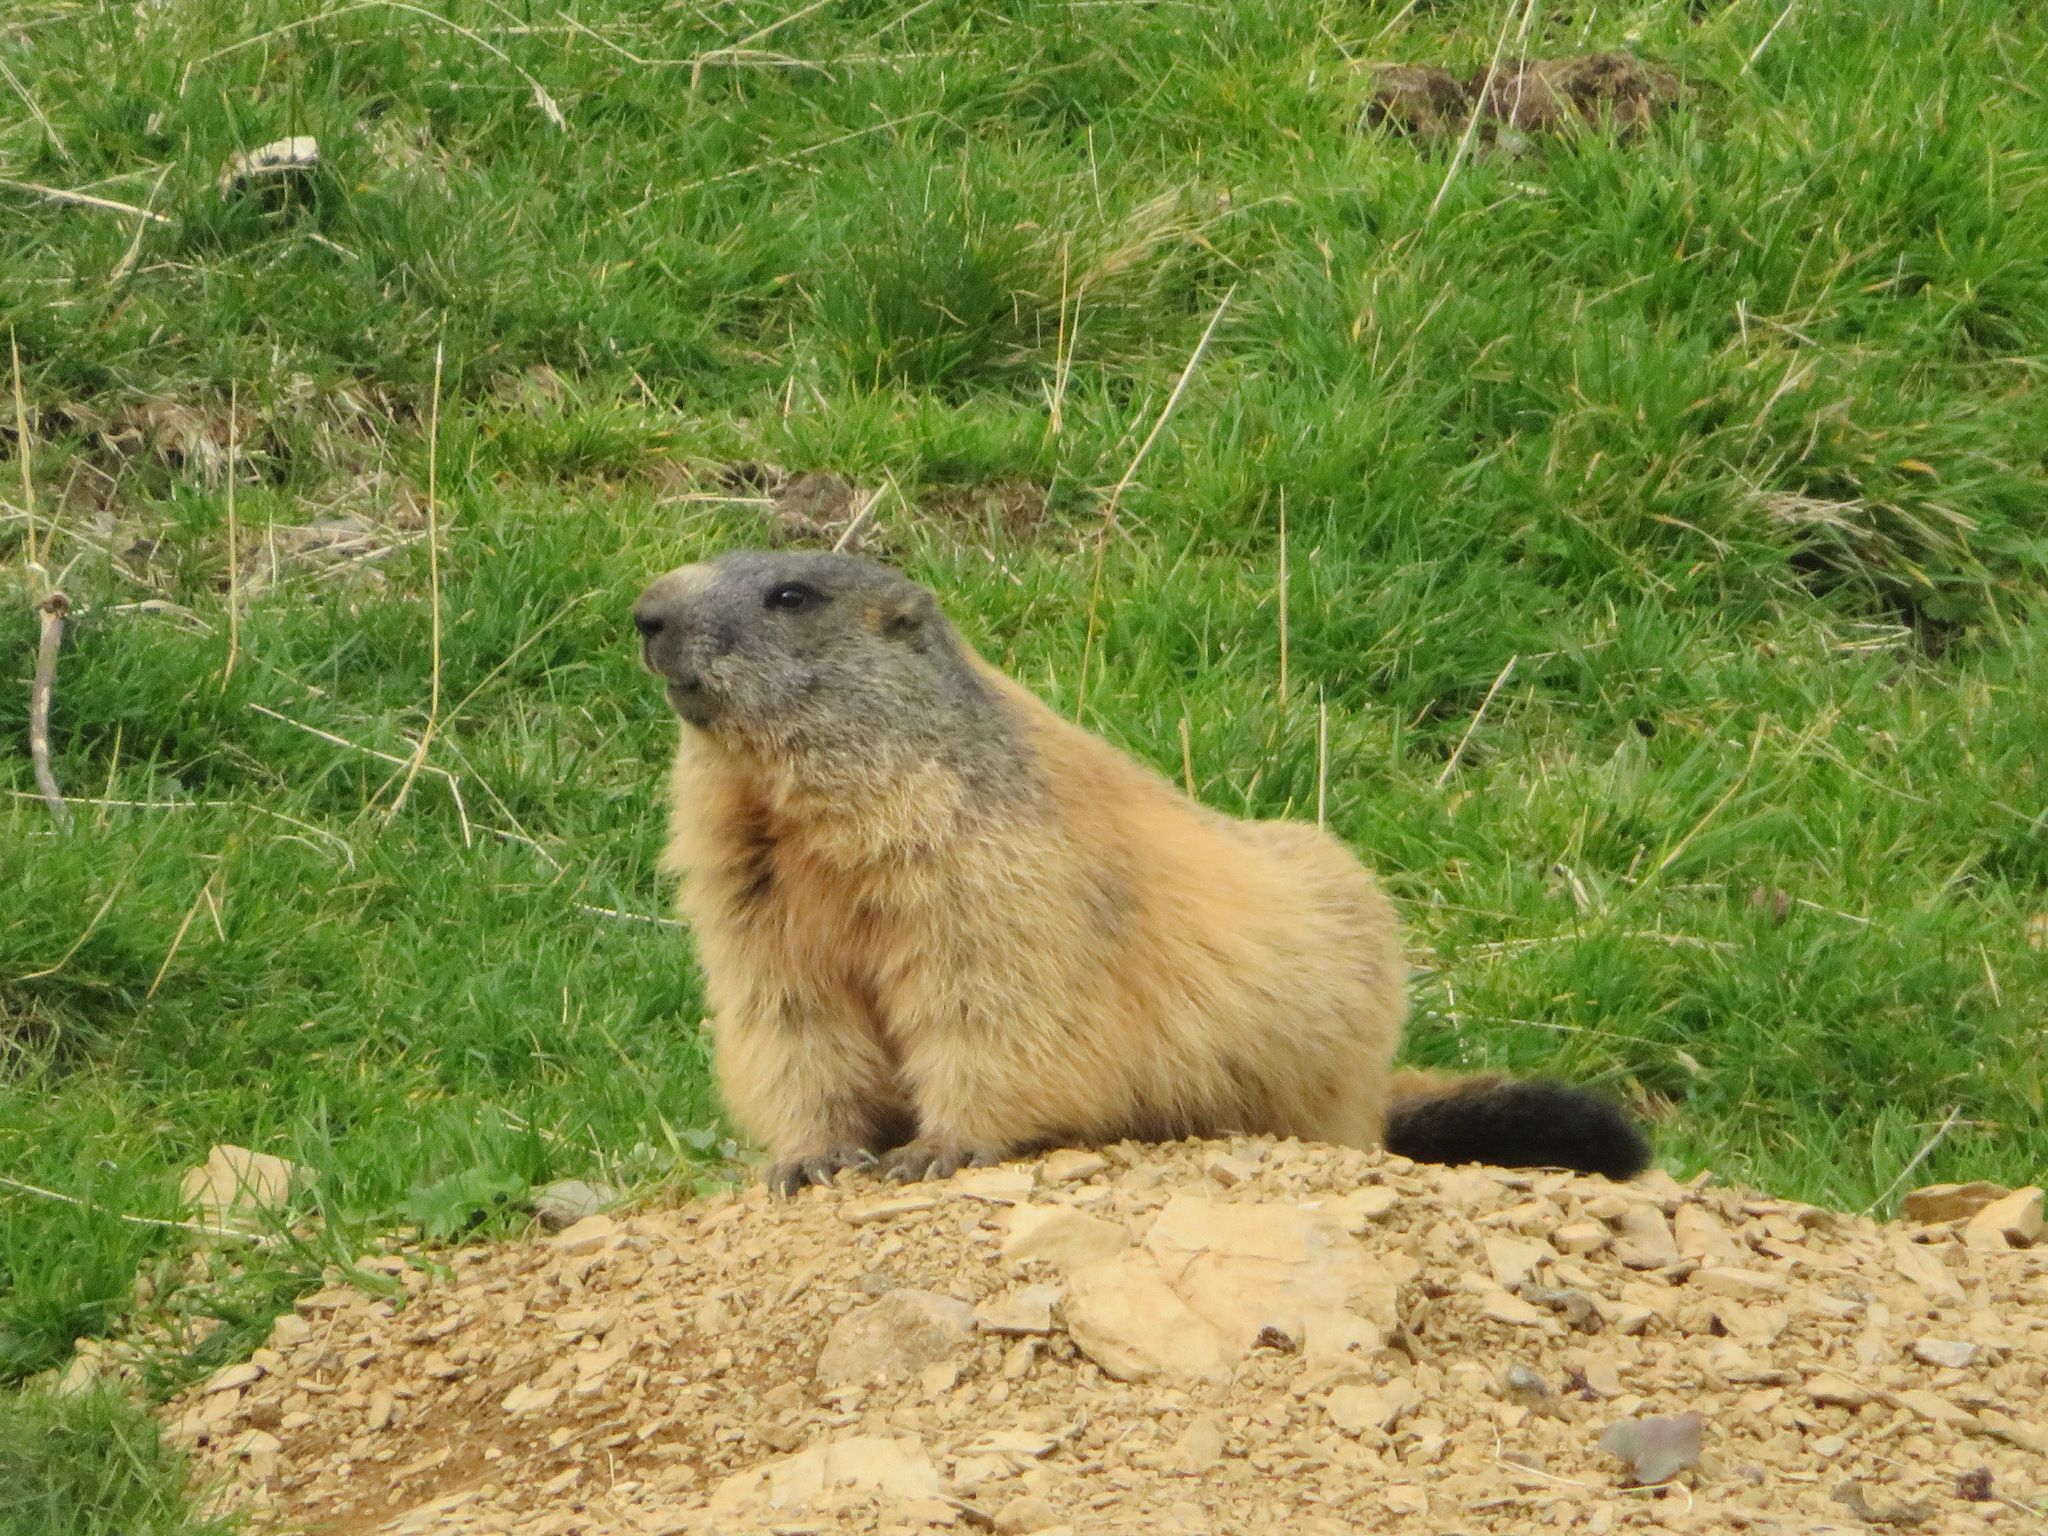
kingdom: Animalia
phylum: Chordata
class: Mammalia
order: Rodentia
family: Sciuridae
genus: Marmota
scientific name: Marmota marmota
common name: Alpine marmot
